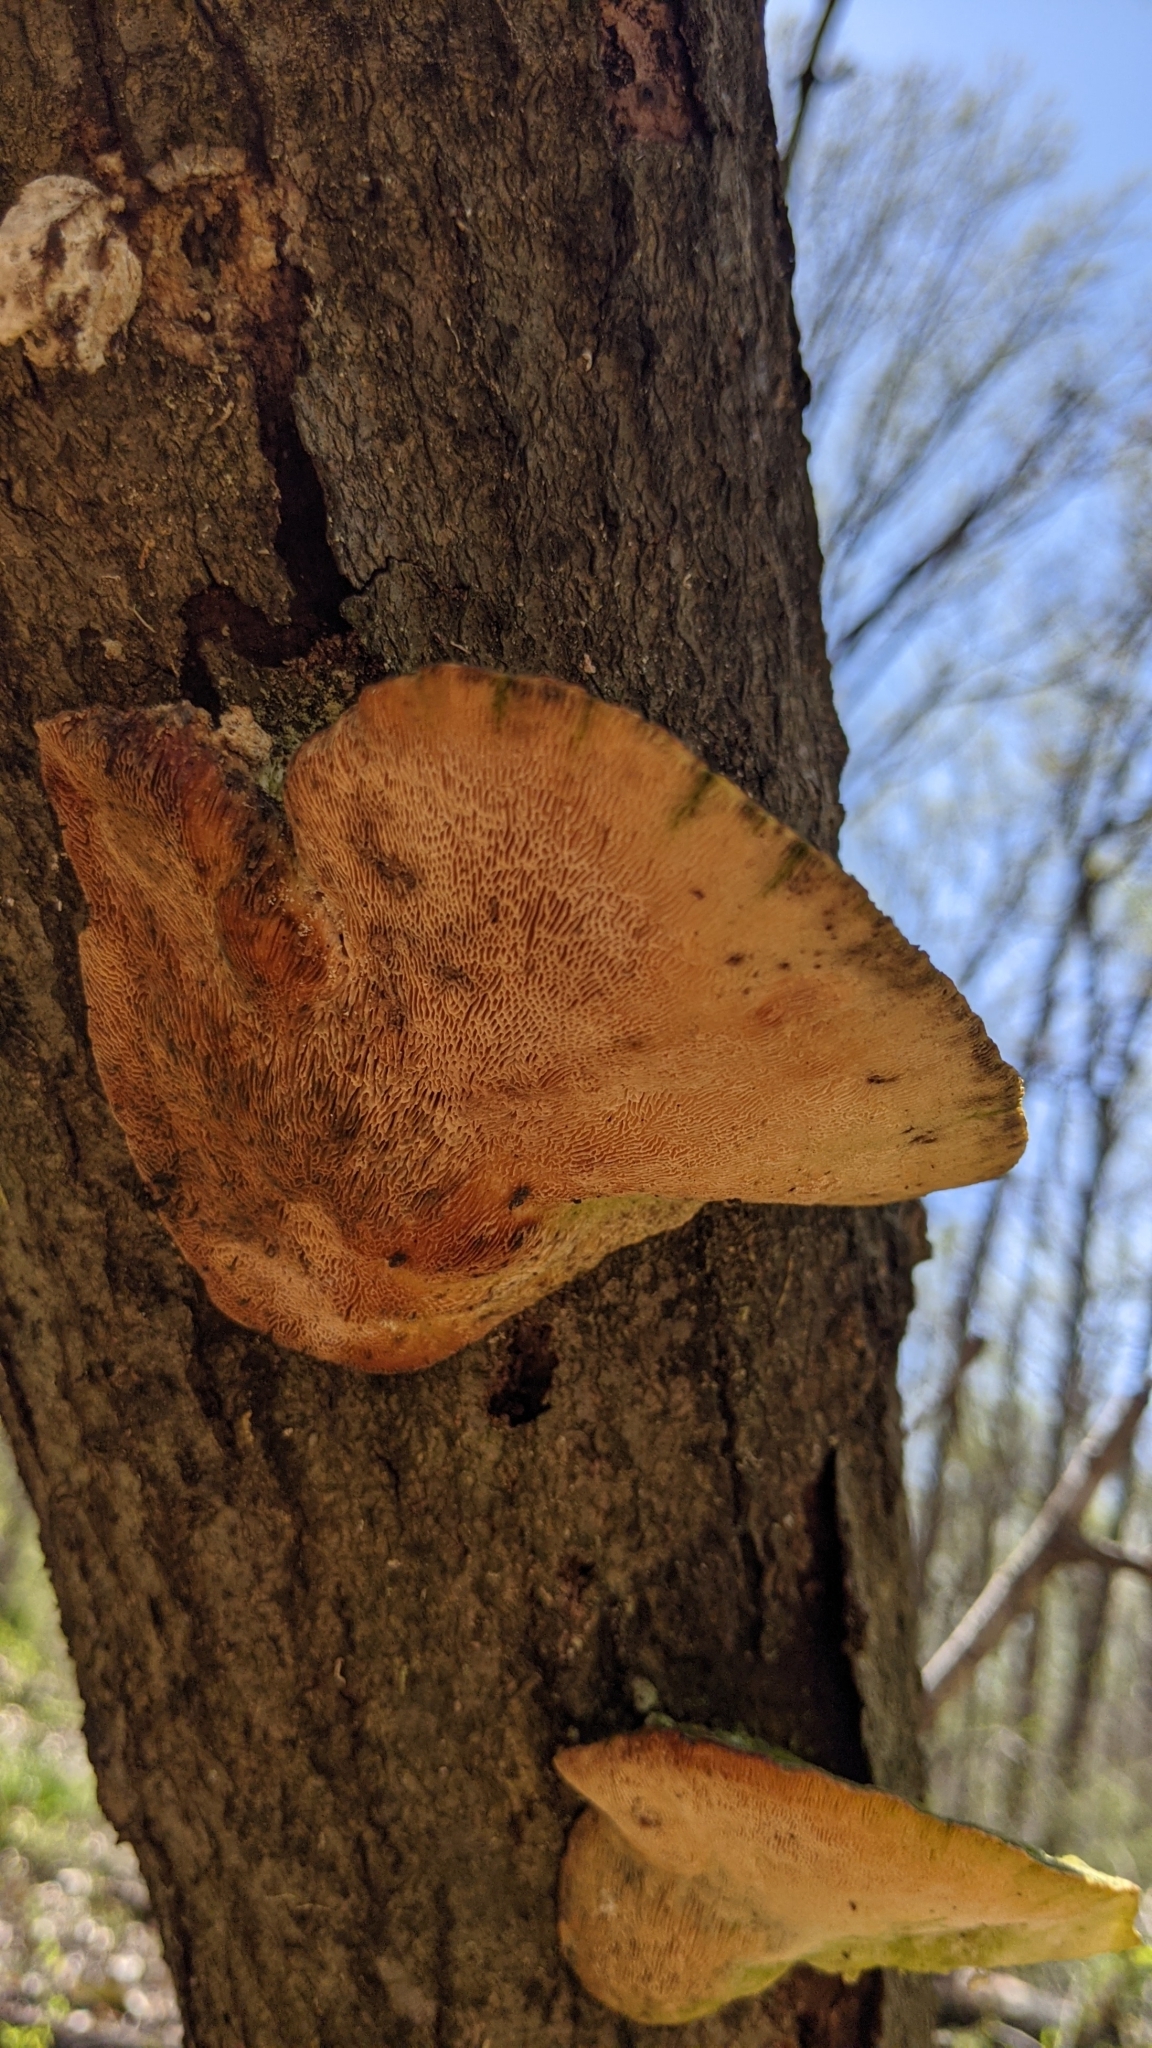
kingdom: Fungi
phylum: Basidiomycota
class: Agaricomycetes
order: Polyporales
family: Polyporaceae
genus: Trametes
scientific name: Trametes gibbosa
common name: Lumpy bracket
